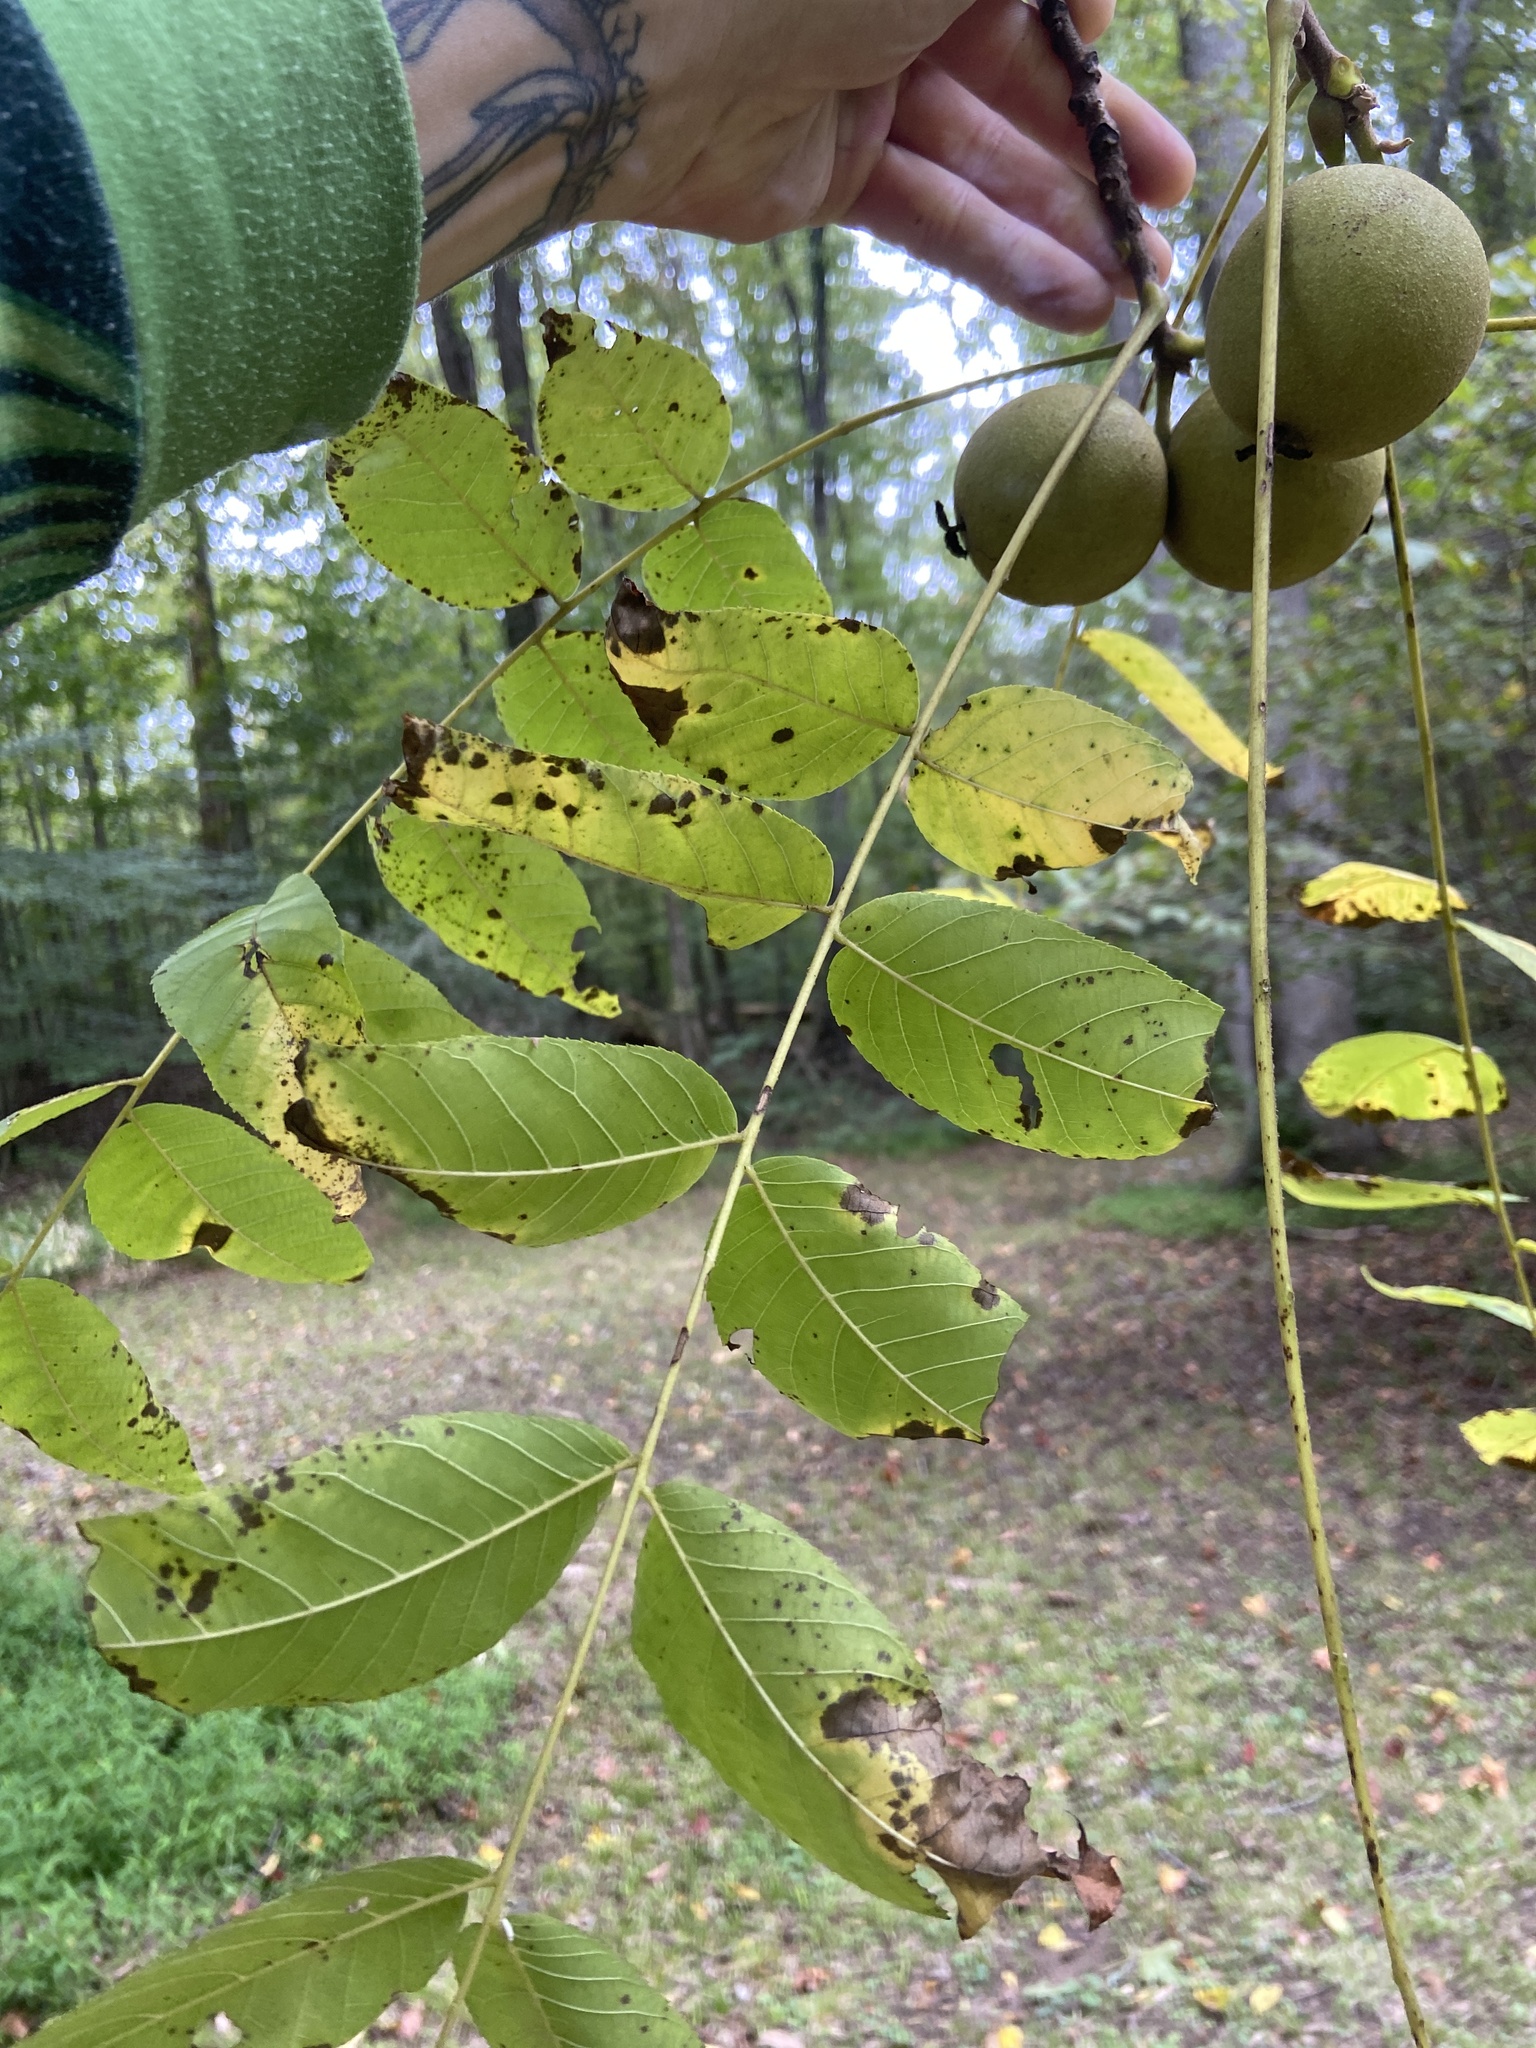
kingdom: Plantae
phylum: Tracheophyta
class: Magnoliopsida
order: Fagales
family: Juglandaceae
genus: Juglans
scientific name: Juglans nigra
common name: Black walnut
